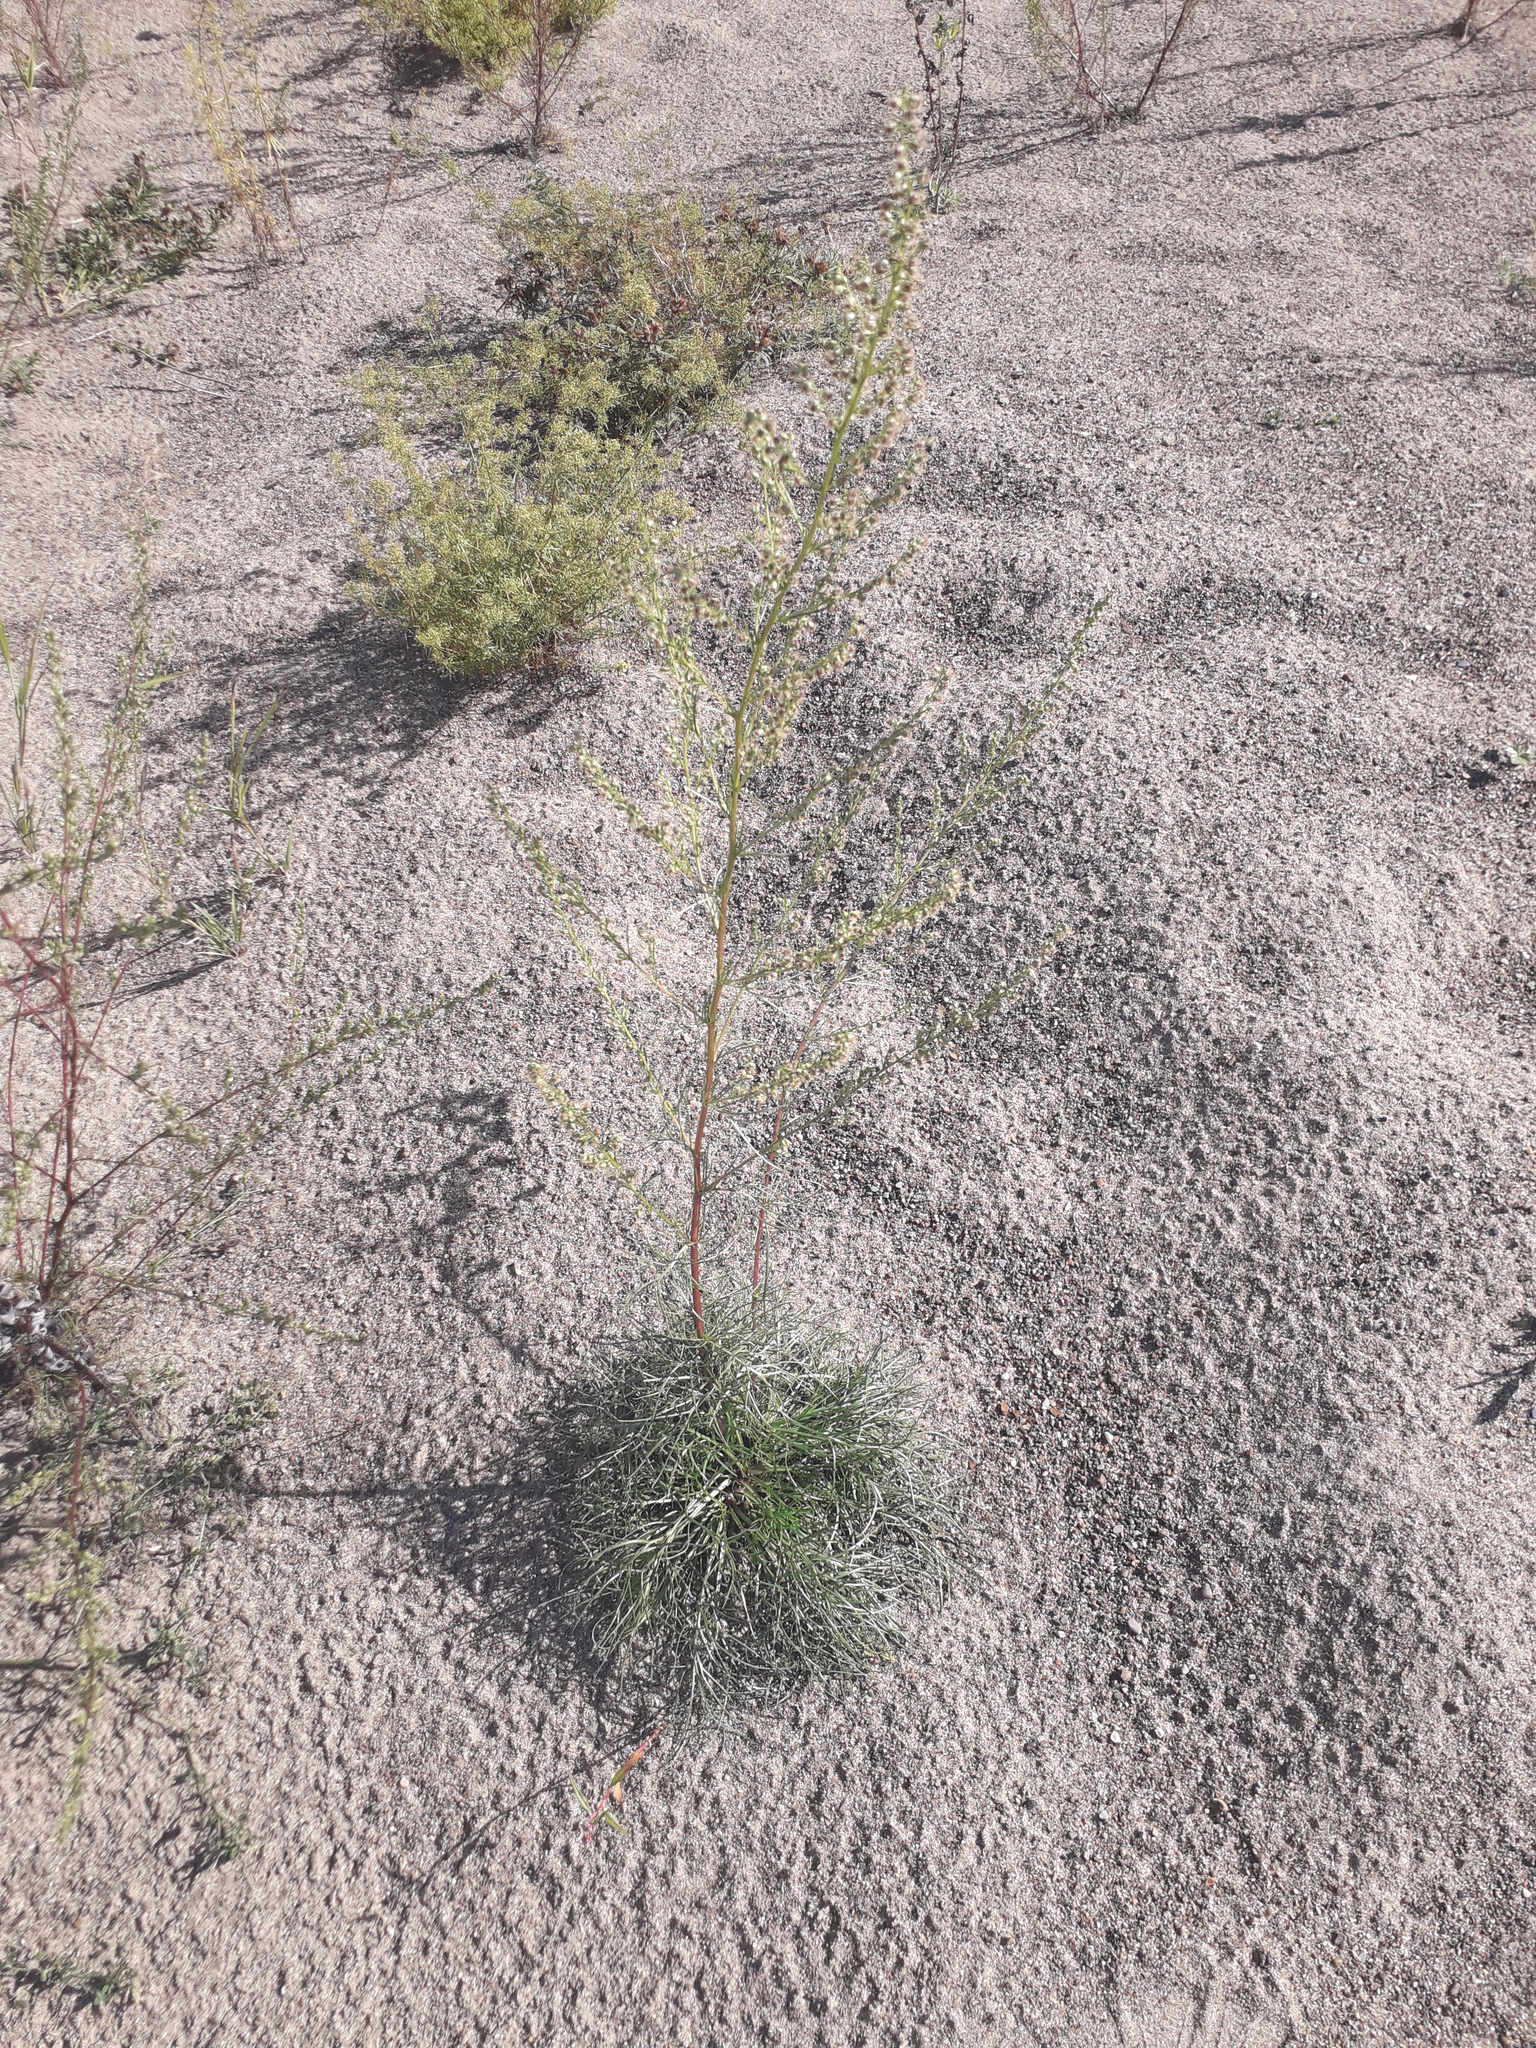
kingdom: Plantae
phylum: Tracheophyta
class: Magnoliopsida
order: Asterales
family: Asteraceae
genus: Artemisia
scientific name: Artemisia pubescens
